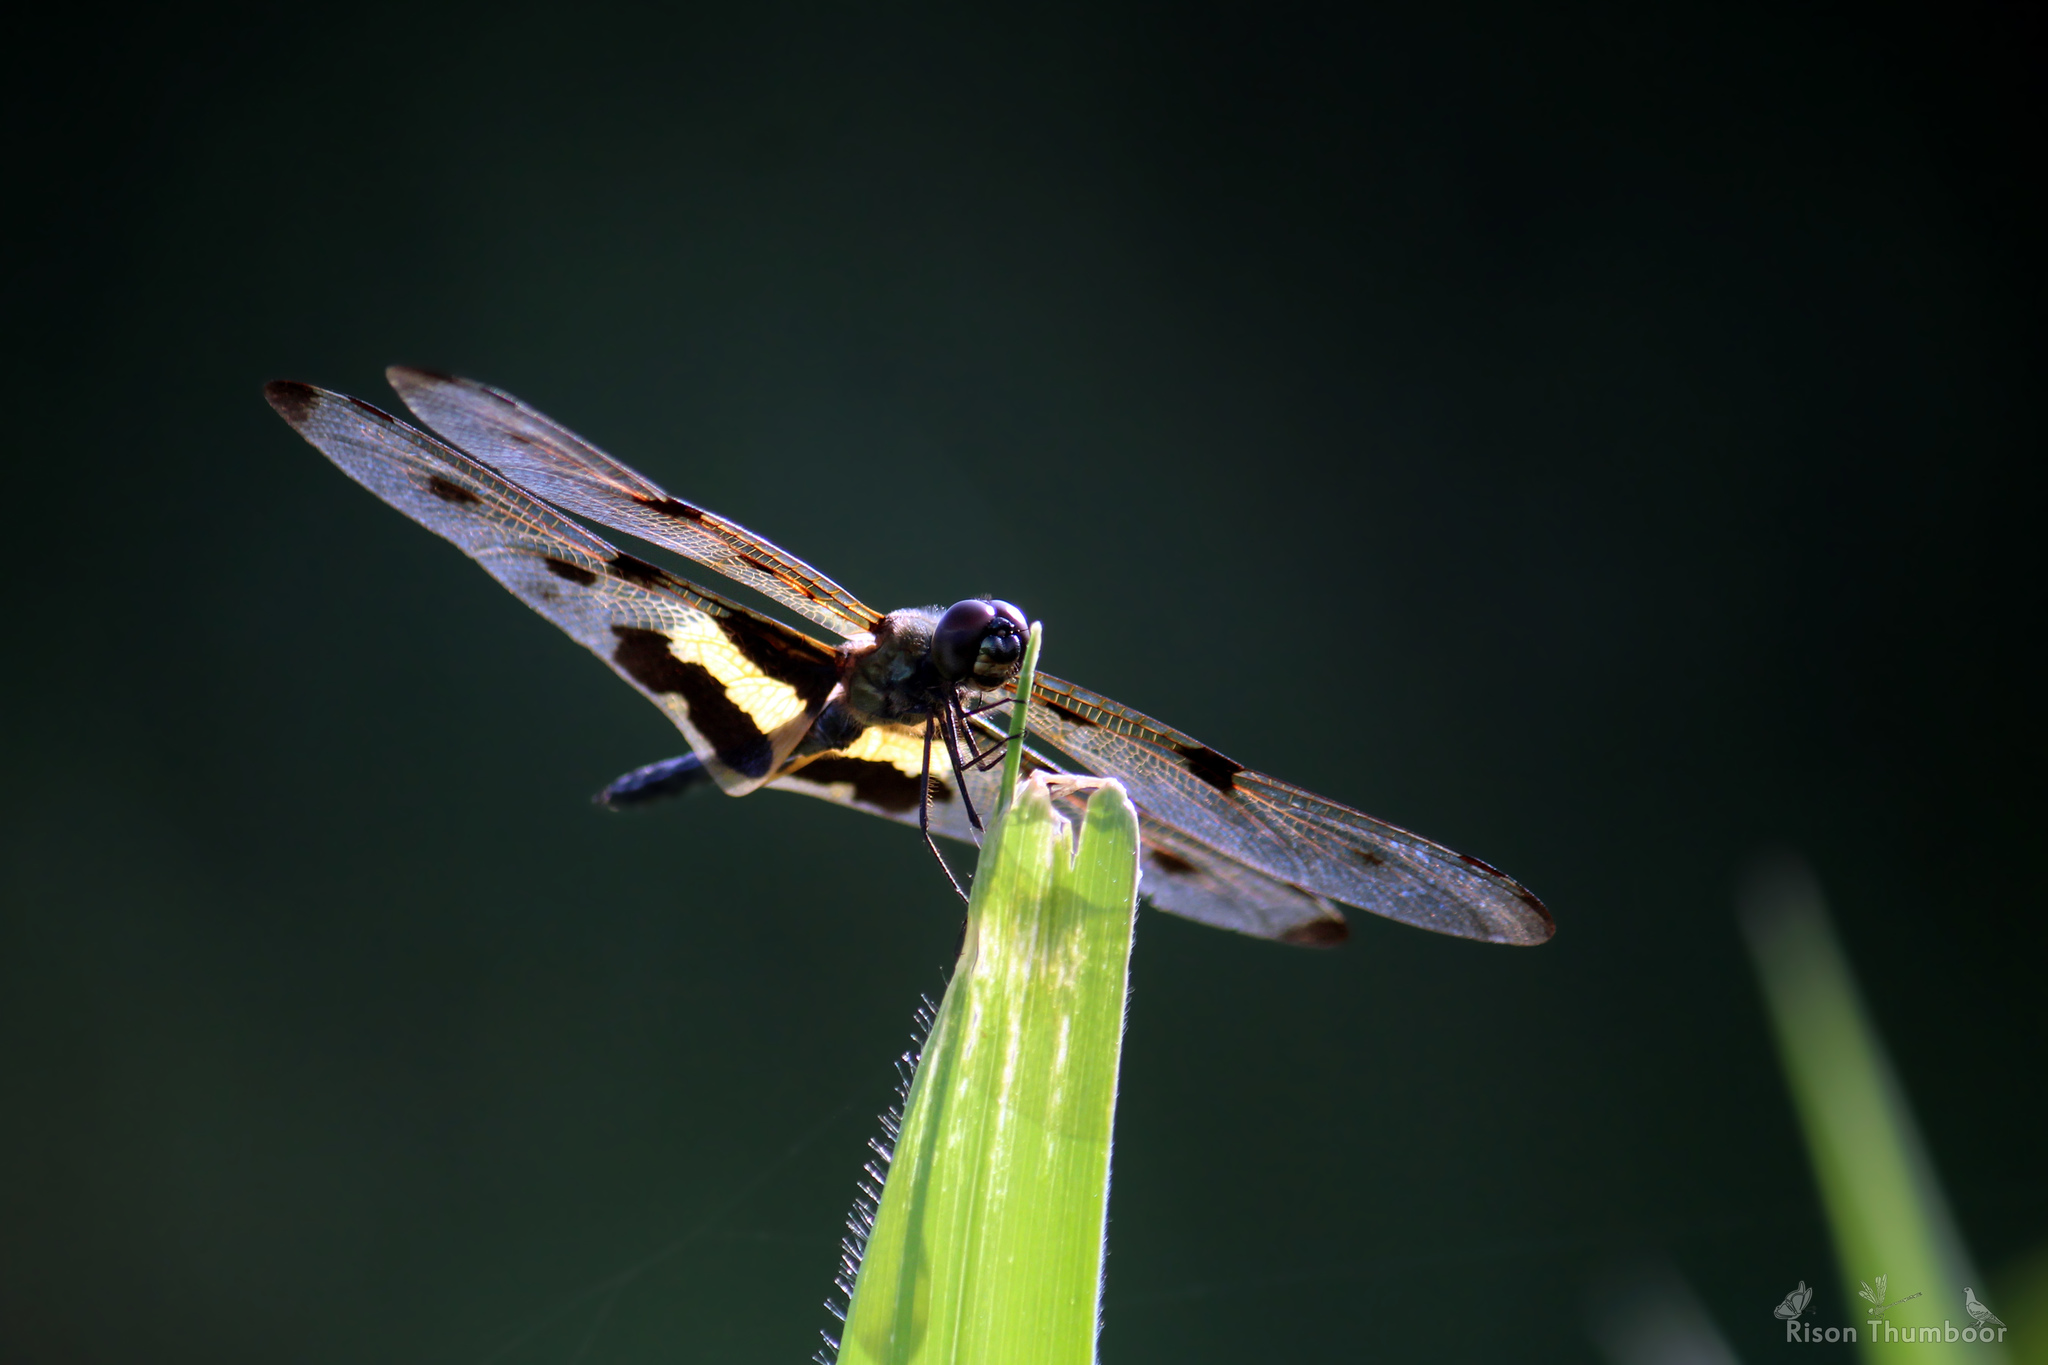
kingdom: Animalia
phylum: Arthropoda
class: Insecta
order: Odonata
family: Libellulidae
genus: Rhyothemis
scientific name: Rhyothemis variegata
